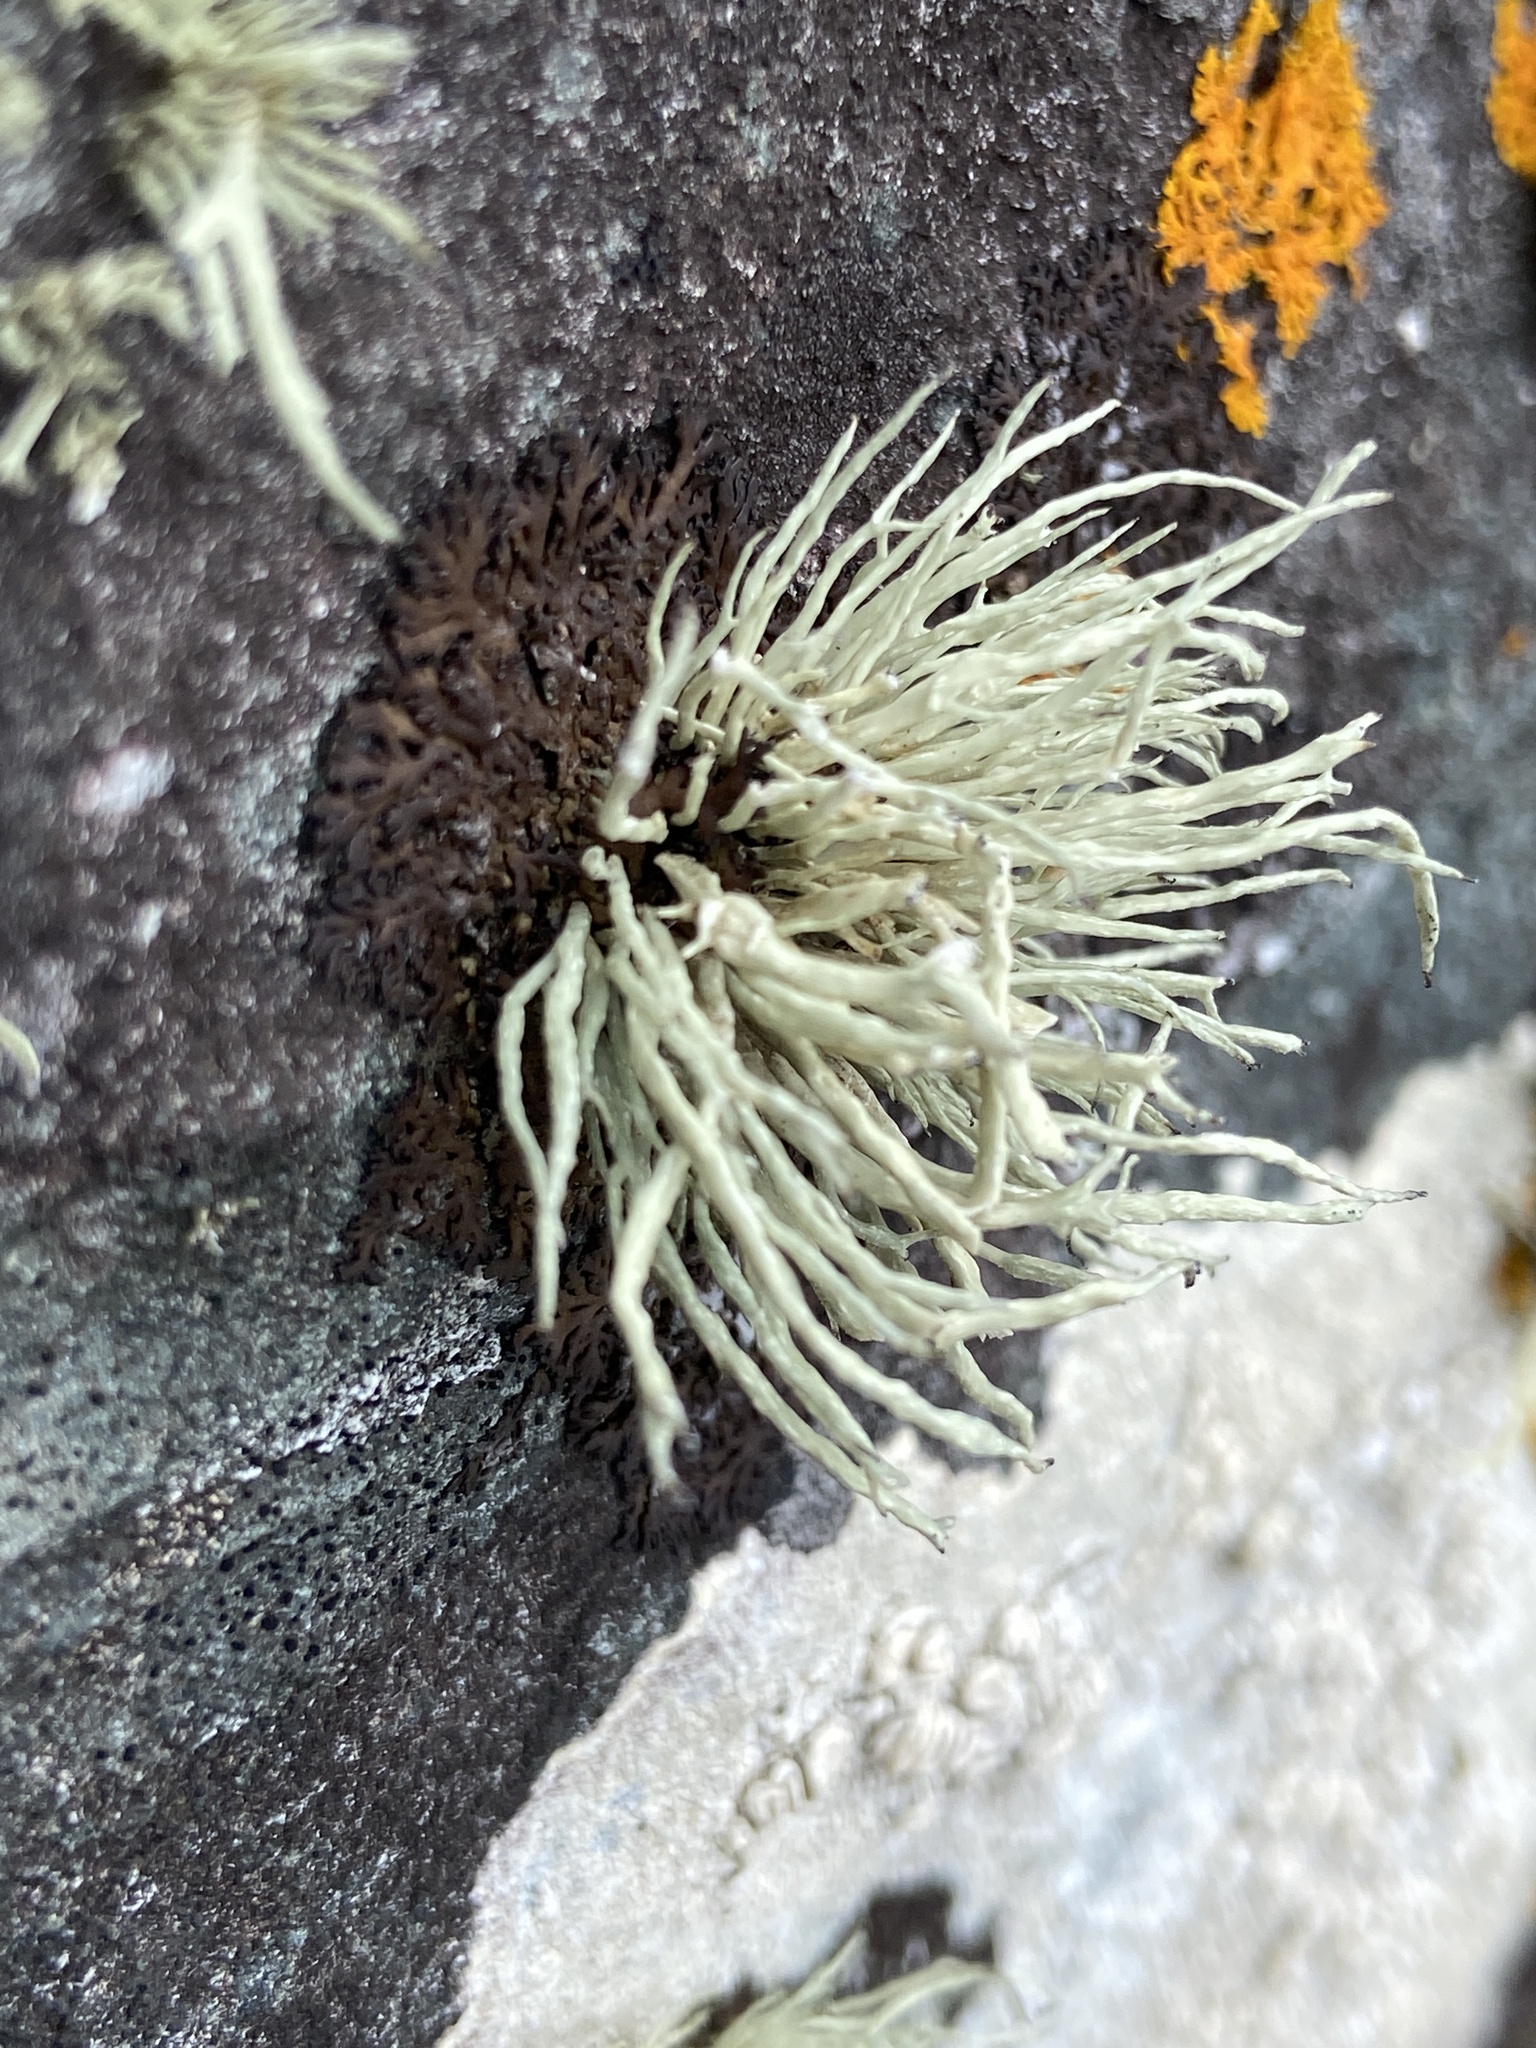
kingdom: Fungi
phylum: Ascomycota
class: Lecanoromycetes
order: Lecanorales
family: Ramalinaceae
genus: Ramalina
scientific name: Ramalina cuspidata
